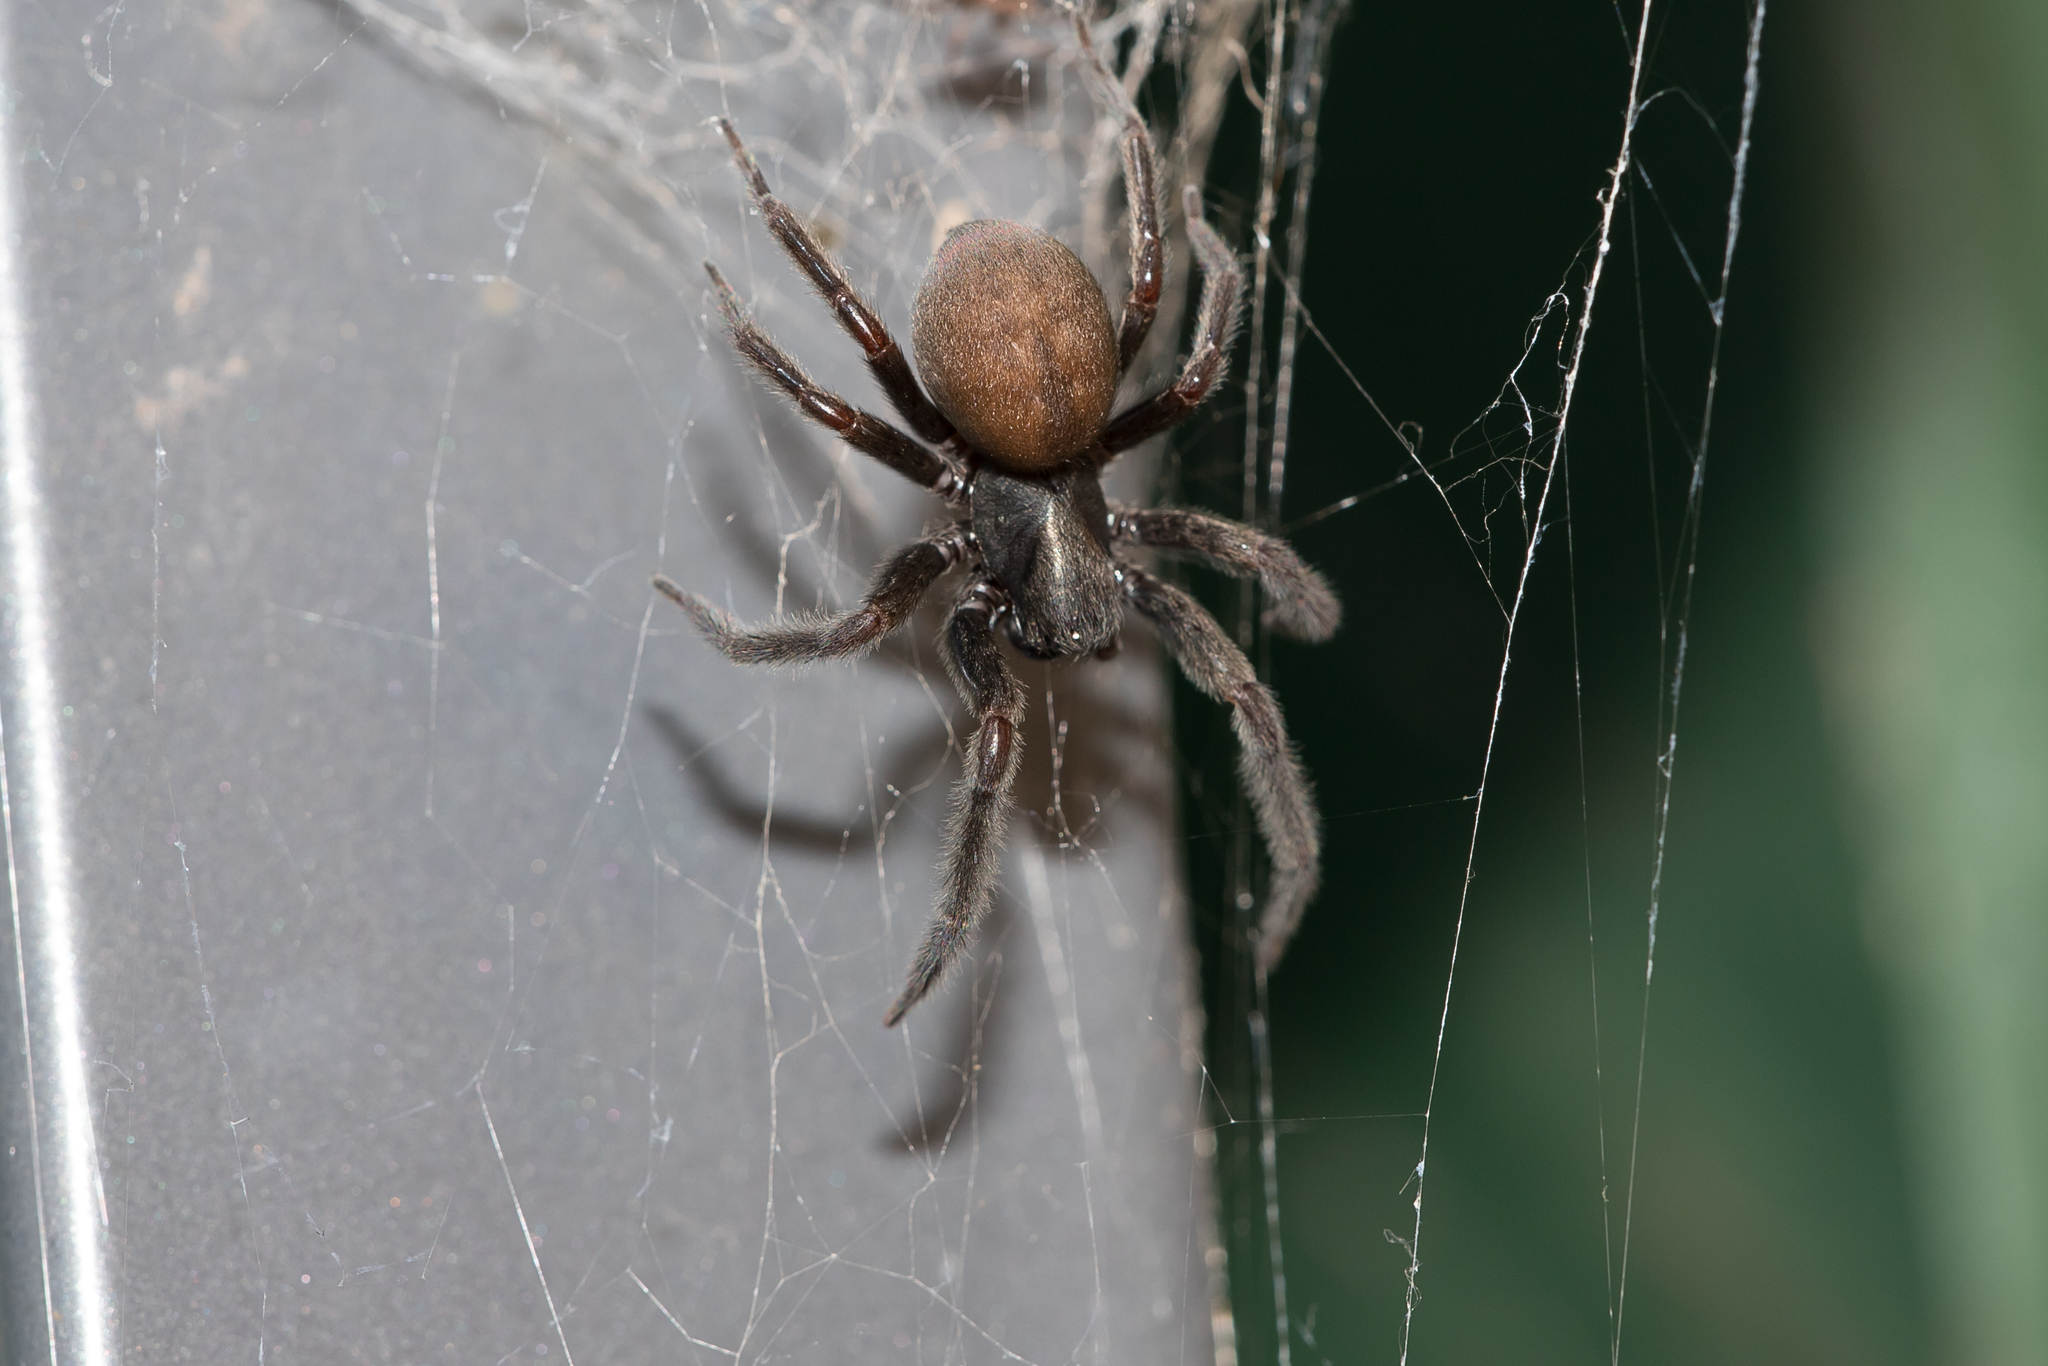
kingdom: Animalia
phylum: Arthropoda
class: Arachnida
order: Araneae
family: Desidae
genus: Badumna
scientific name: Badumna insignis
